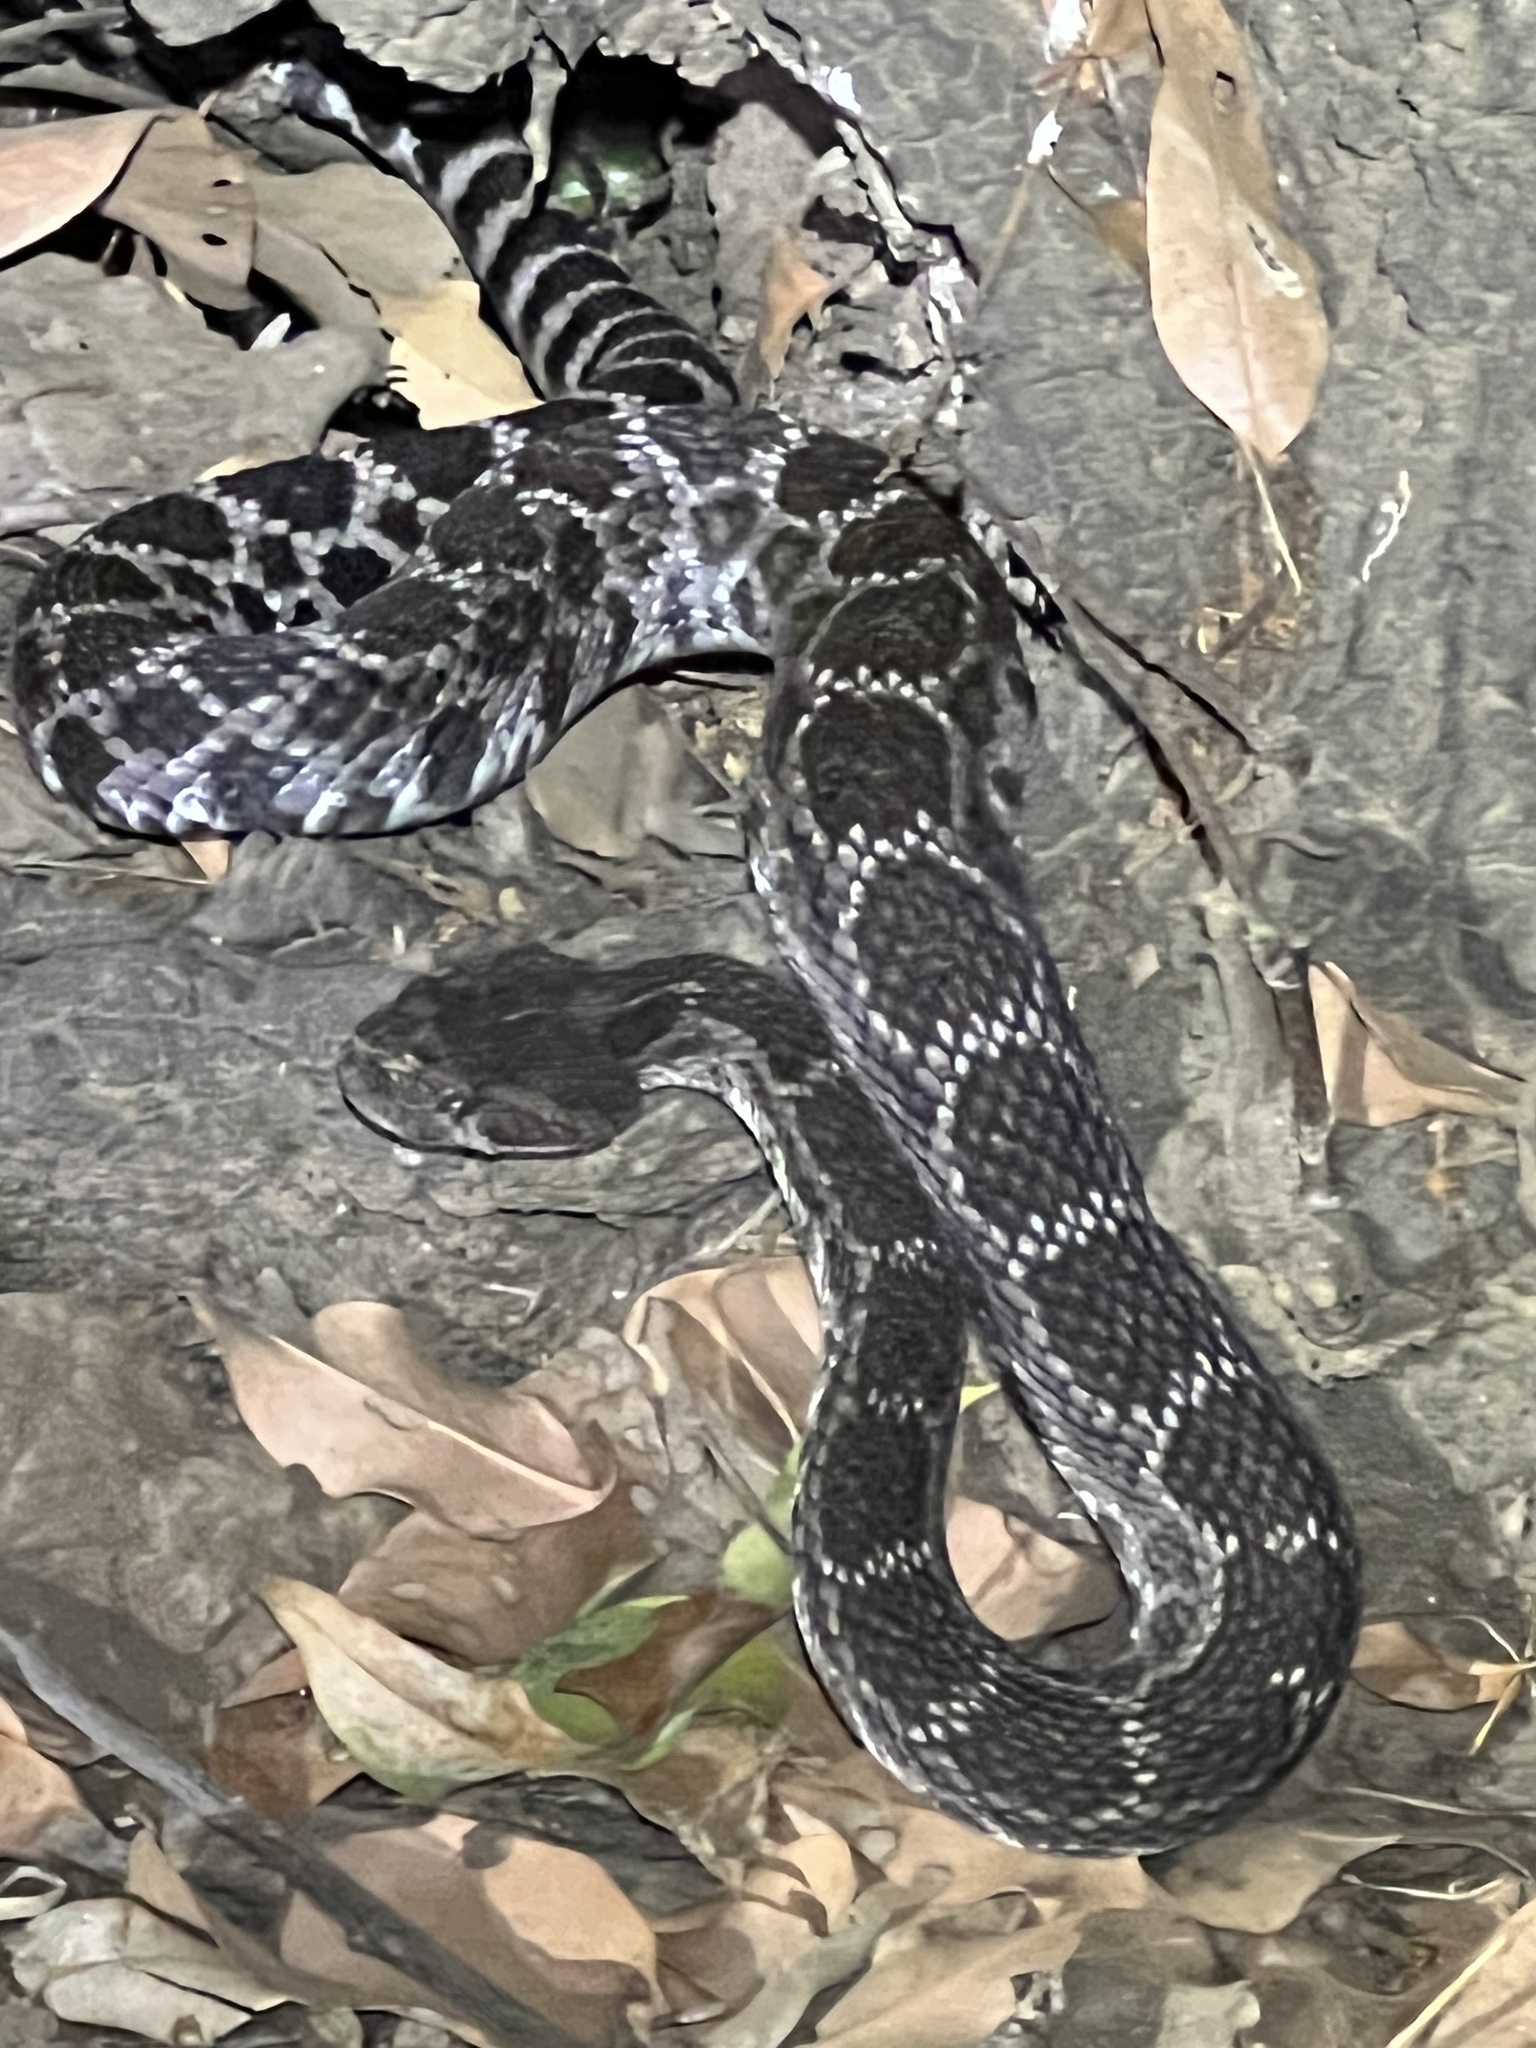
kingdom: Animalia
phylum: Chordata
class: Squamata
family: Viperidae
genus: Crotalus
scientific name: Crotalus oreganus
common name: Abyssus
